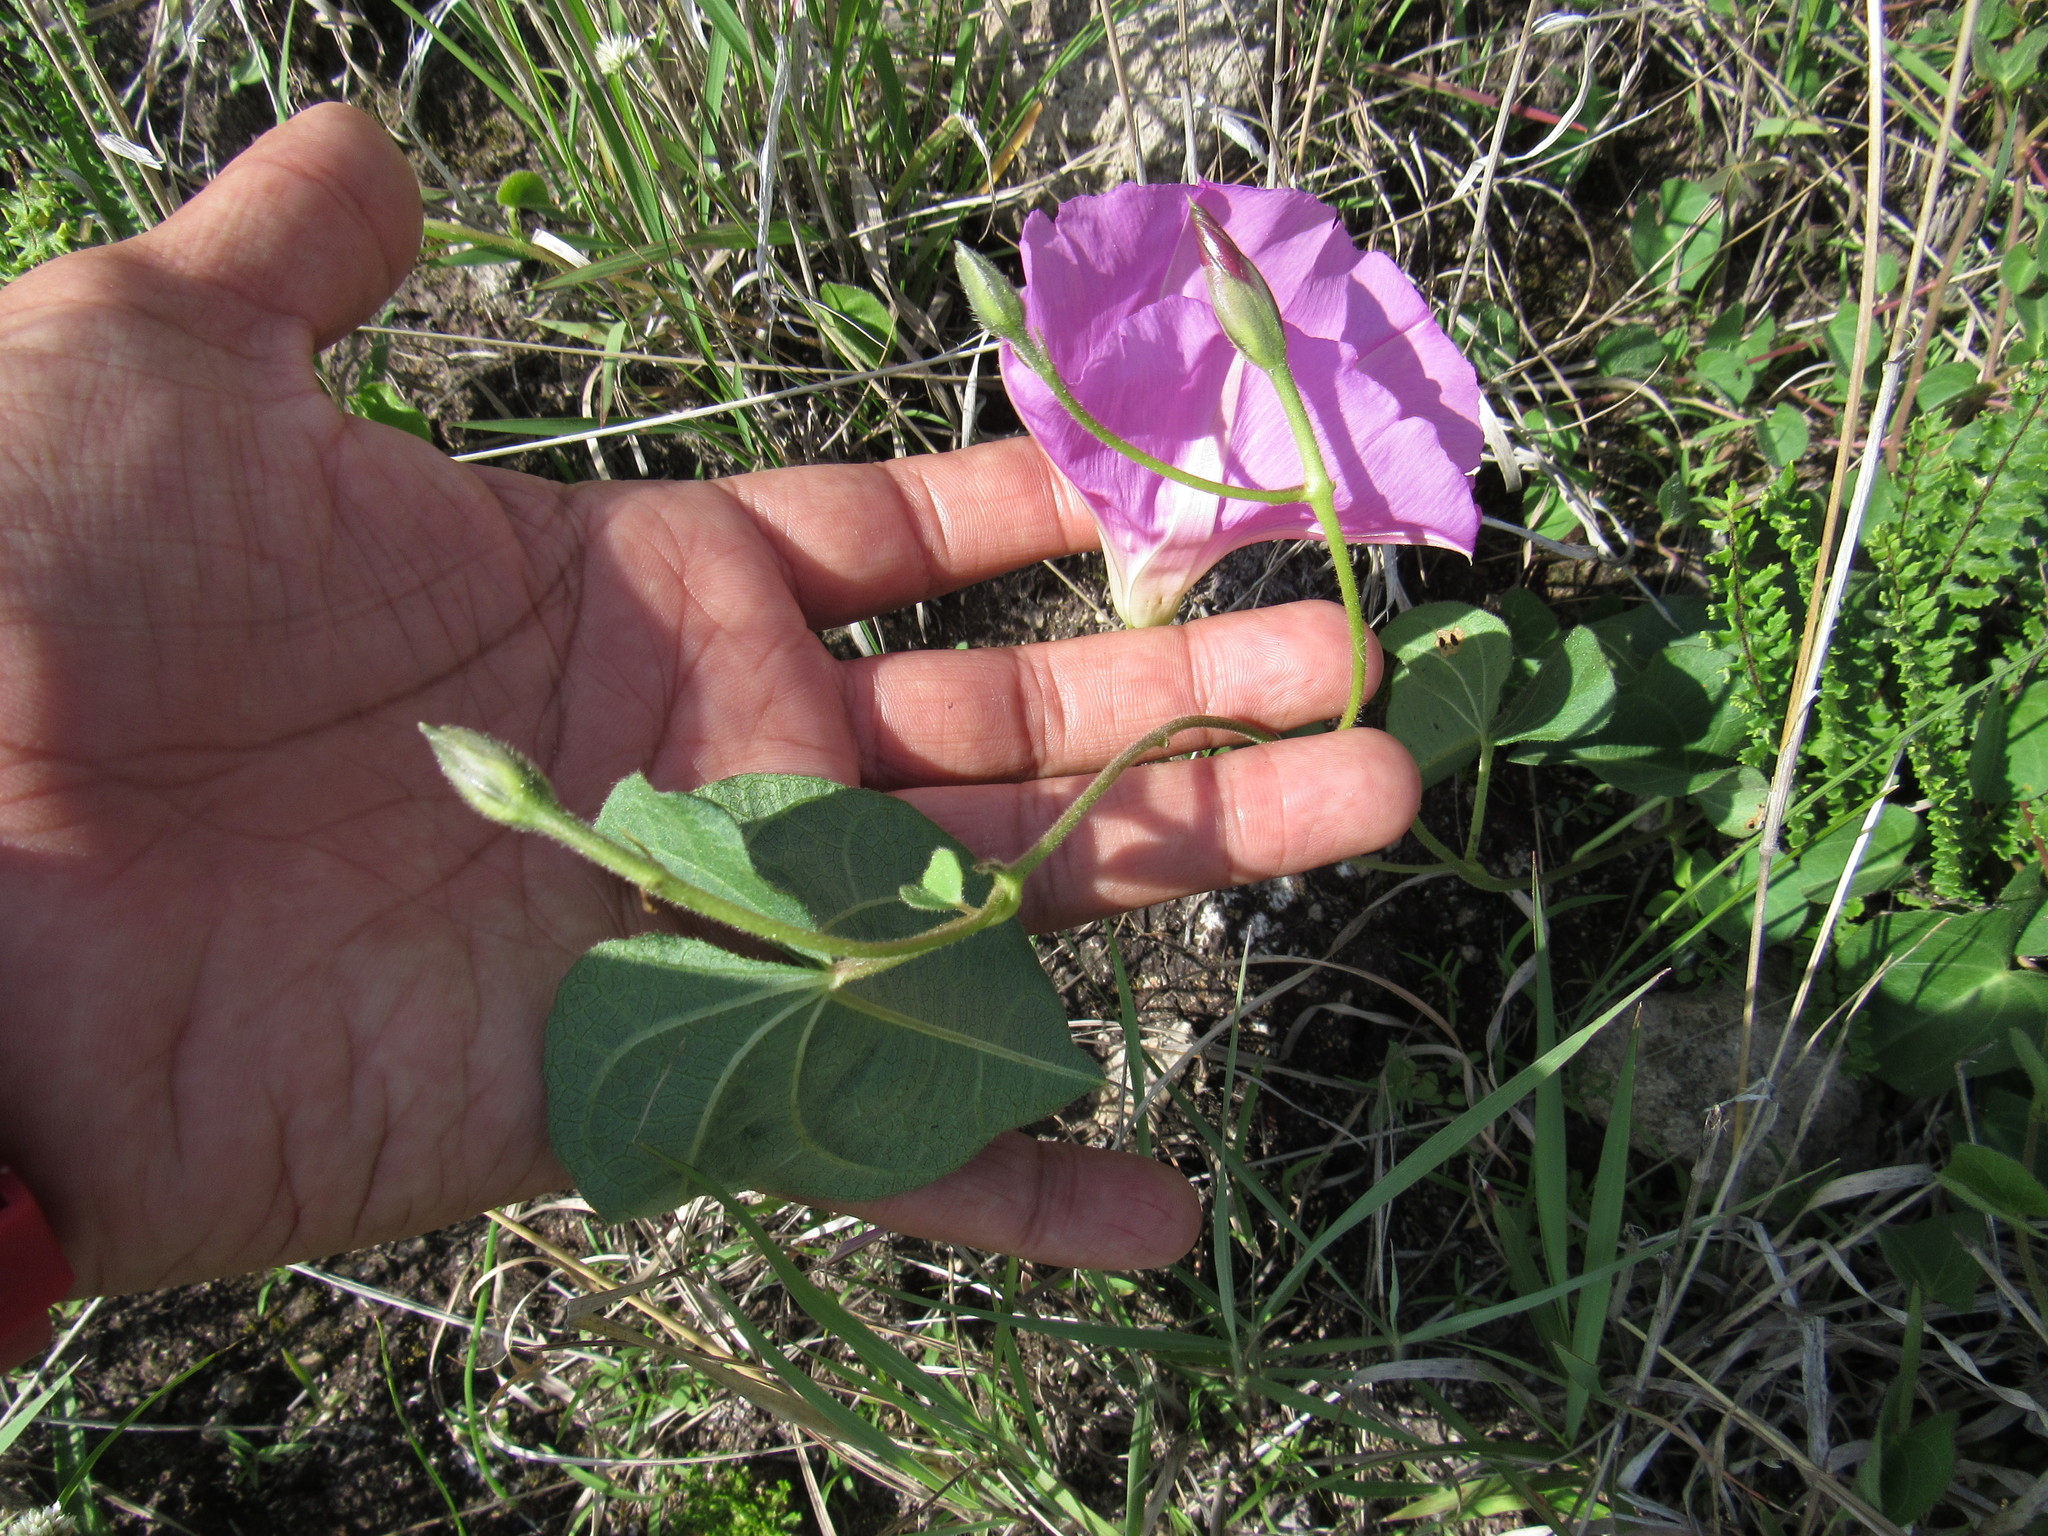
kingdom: Plantae
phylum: Tracheophyta
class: Magnoliopsida
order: Solanales
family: Convolvulaceae
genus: Ipomoea
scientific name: Ipomoea hartwegii
